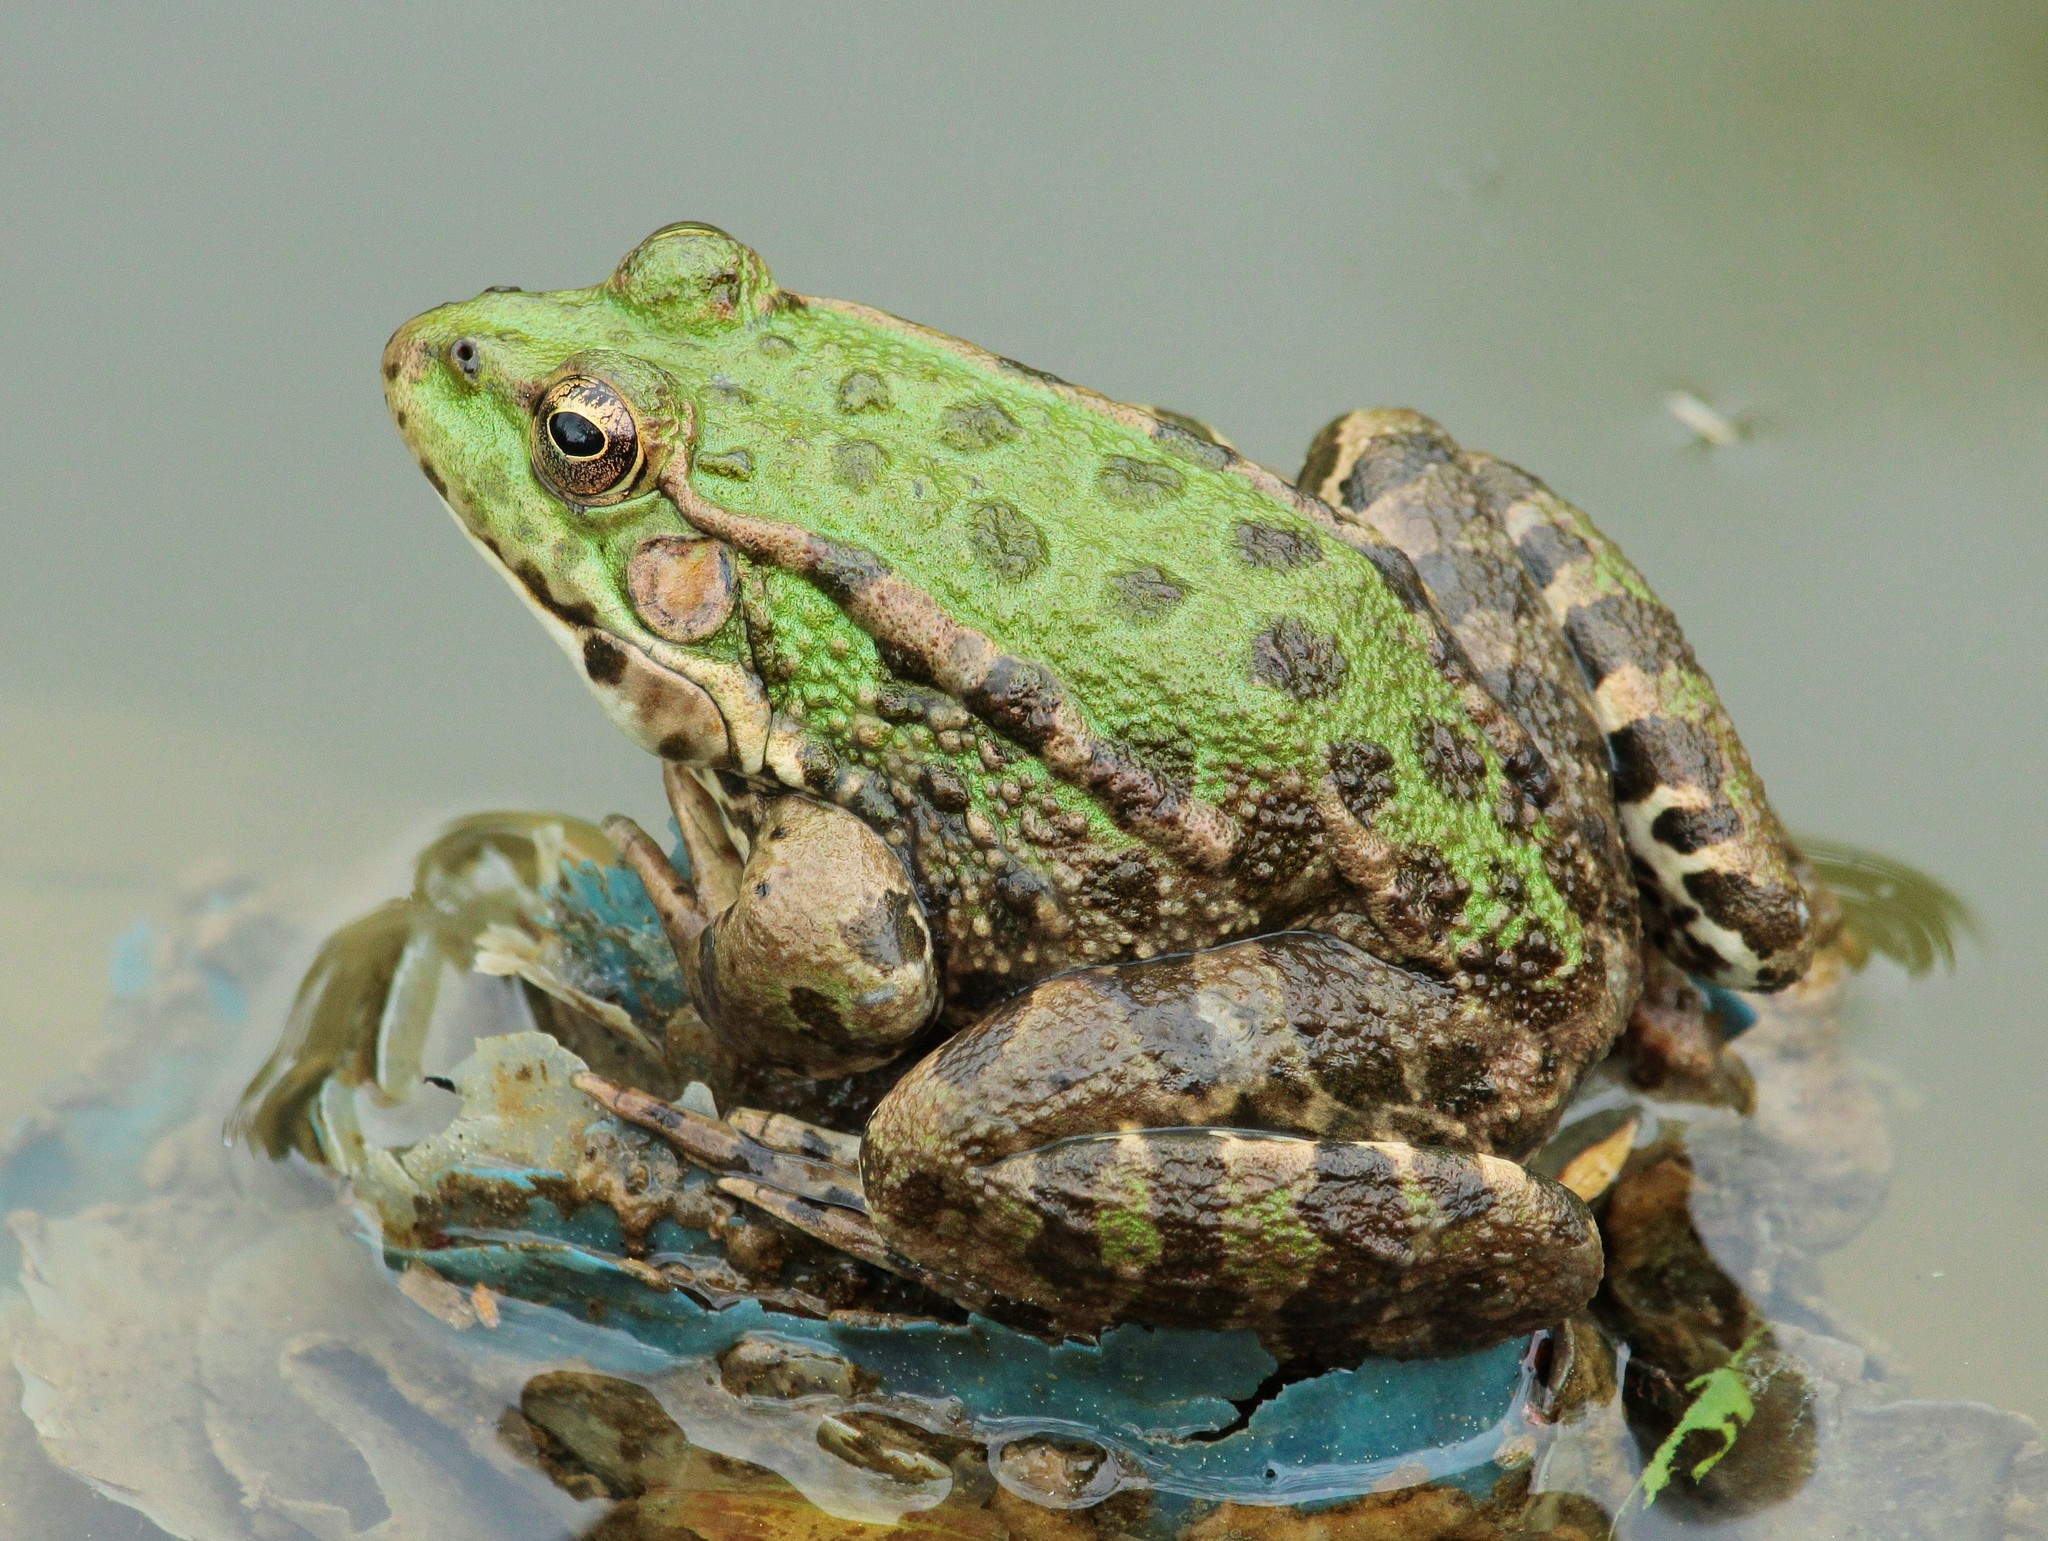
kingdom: Animalia
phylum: Chordata
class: Amphibia
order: Anura
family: Ranidae
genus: Pelophylax
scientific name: Pelophylax ridibundus
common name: Marsh frog
